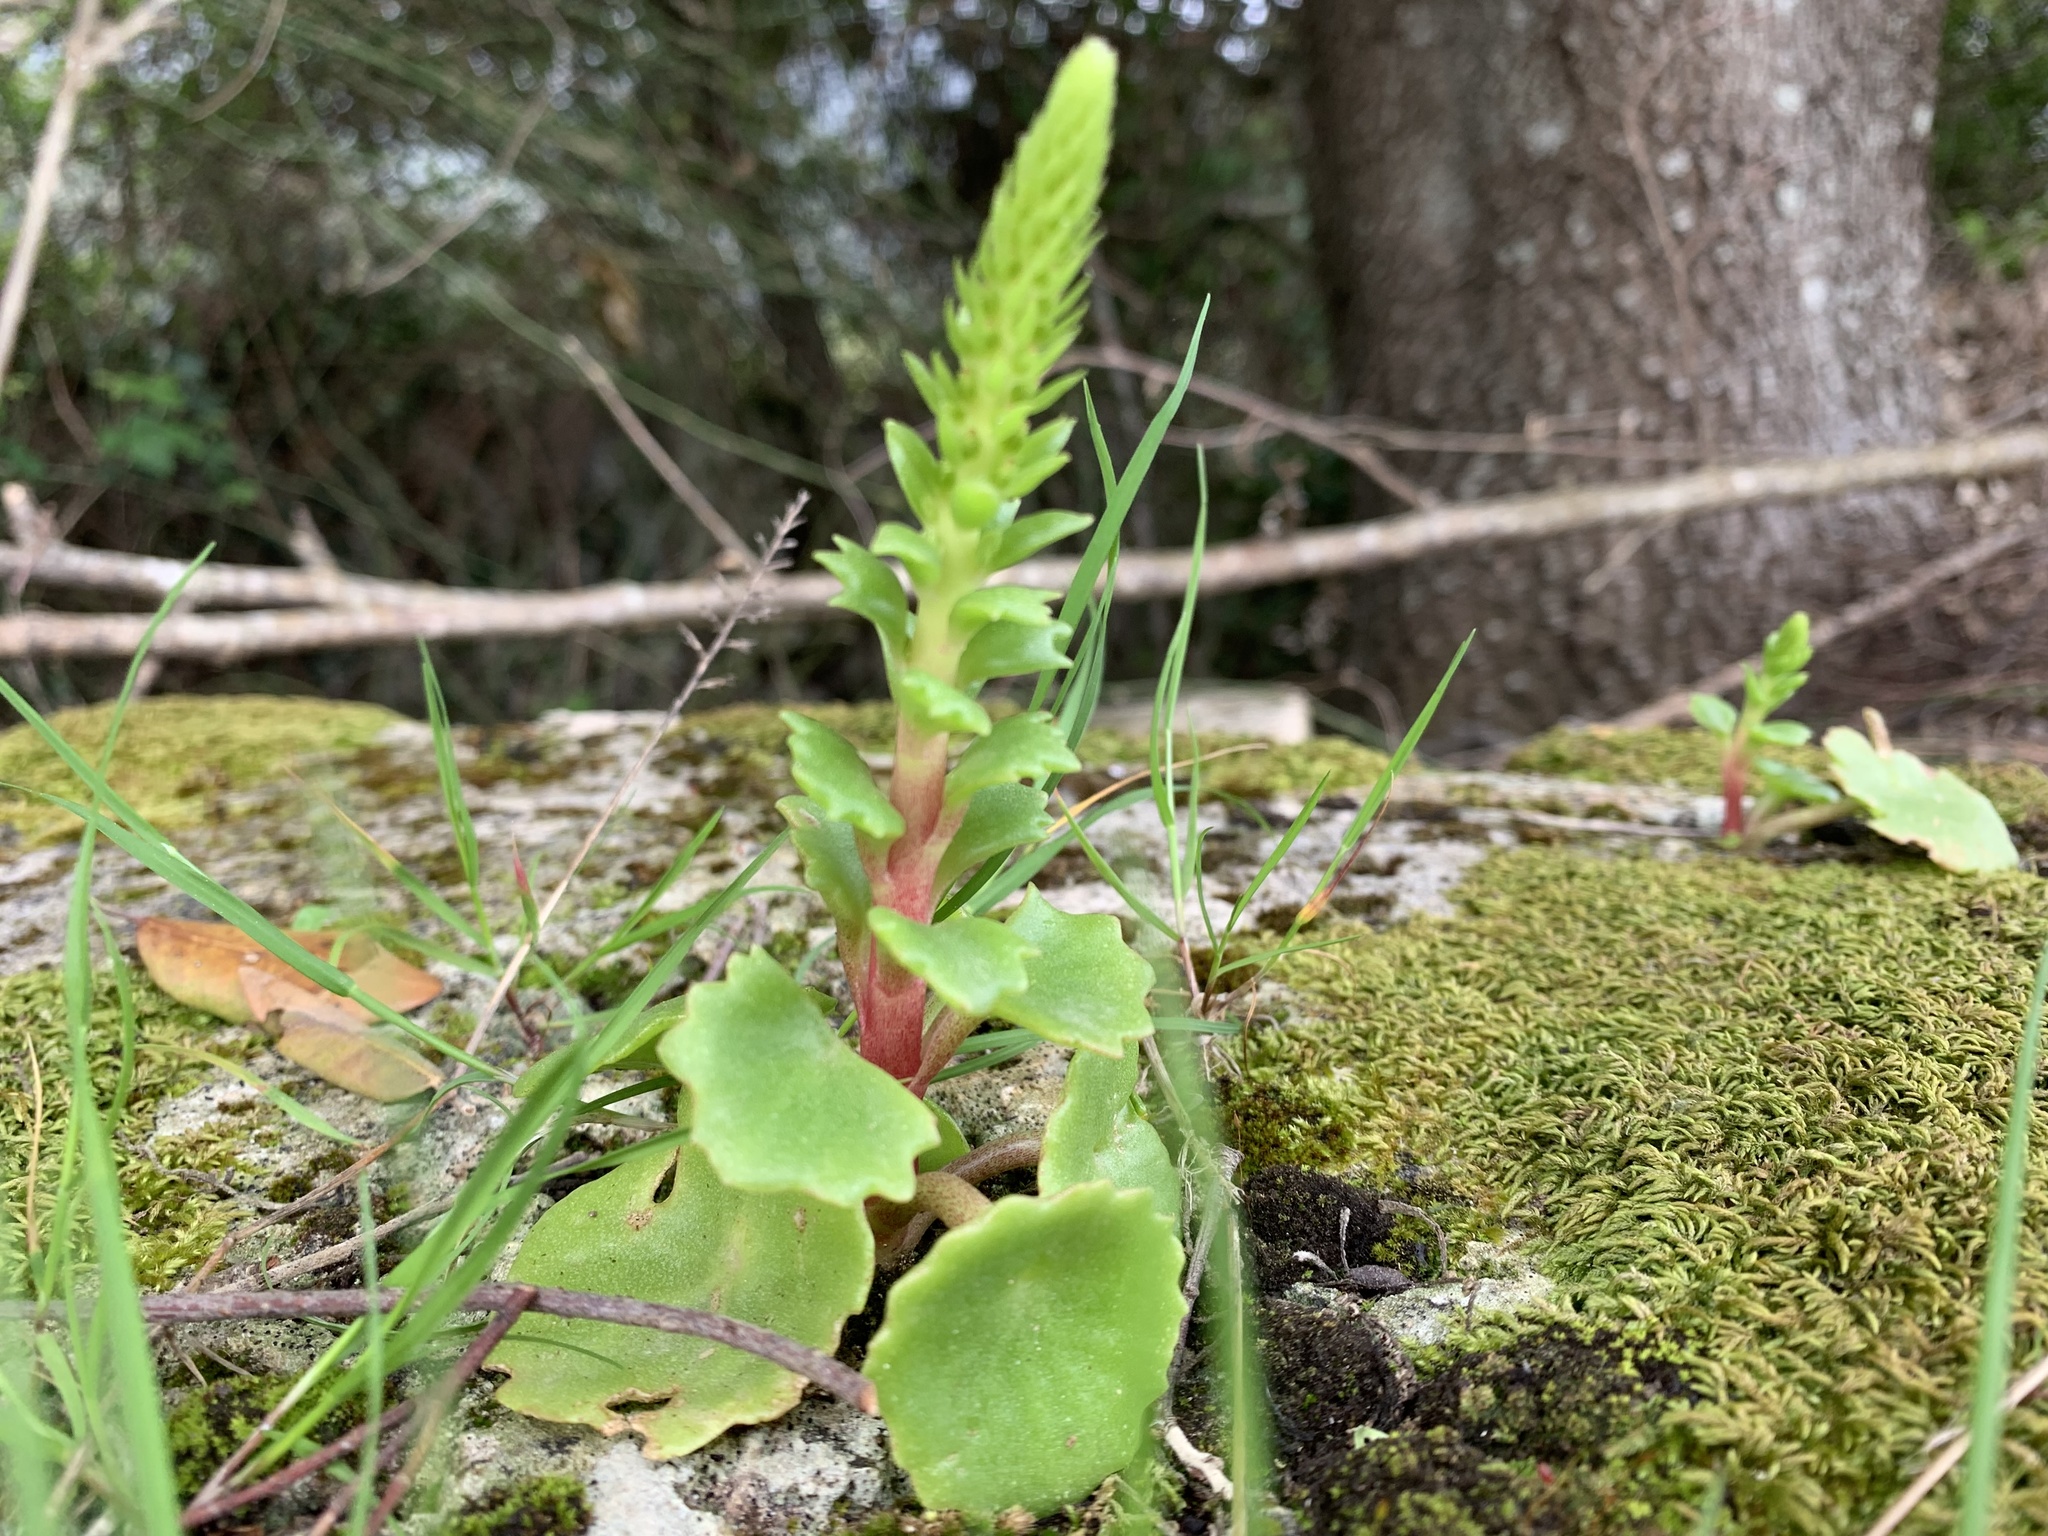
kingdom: Plantae
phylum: Tracheophyta
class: Magnoliopsida
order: Saxifragales
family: Crassulaceae
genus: Umbilicus
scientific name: Umbilicus rupestris
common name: Navelwort
